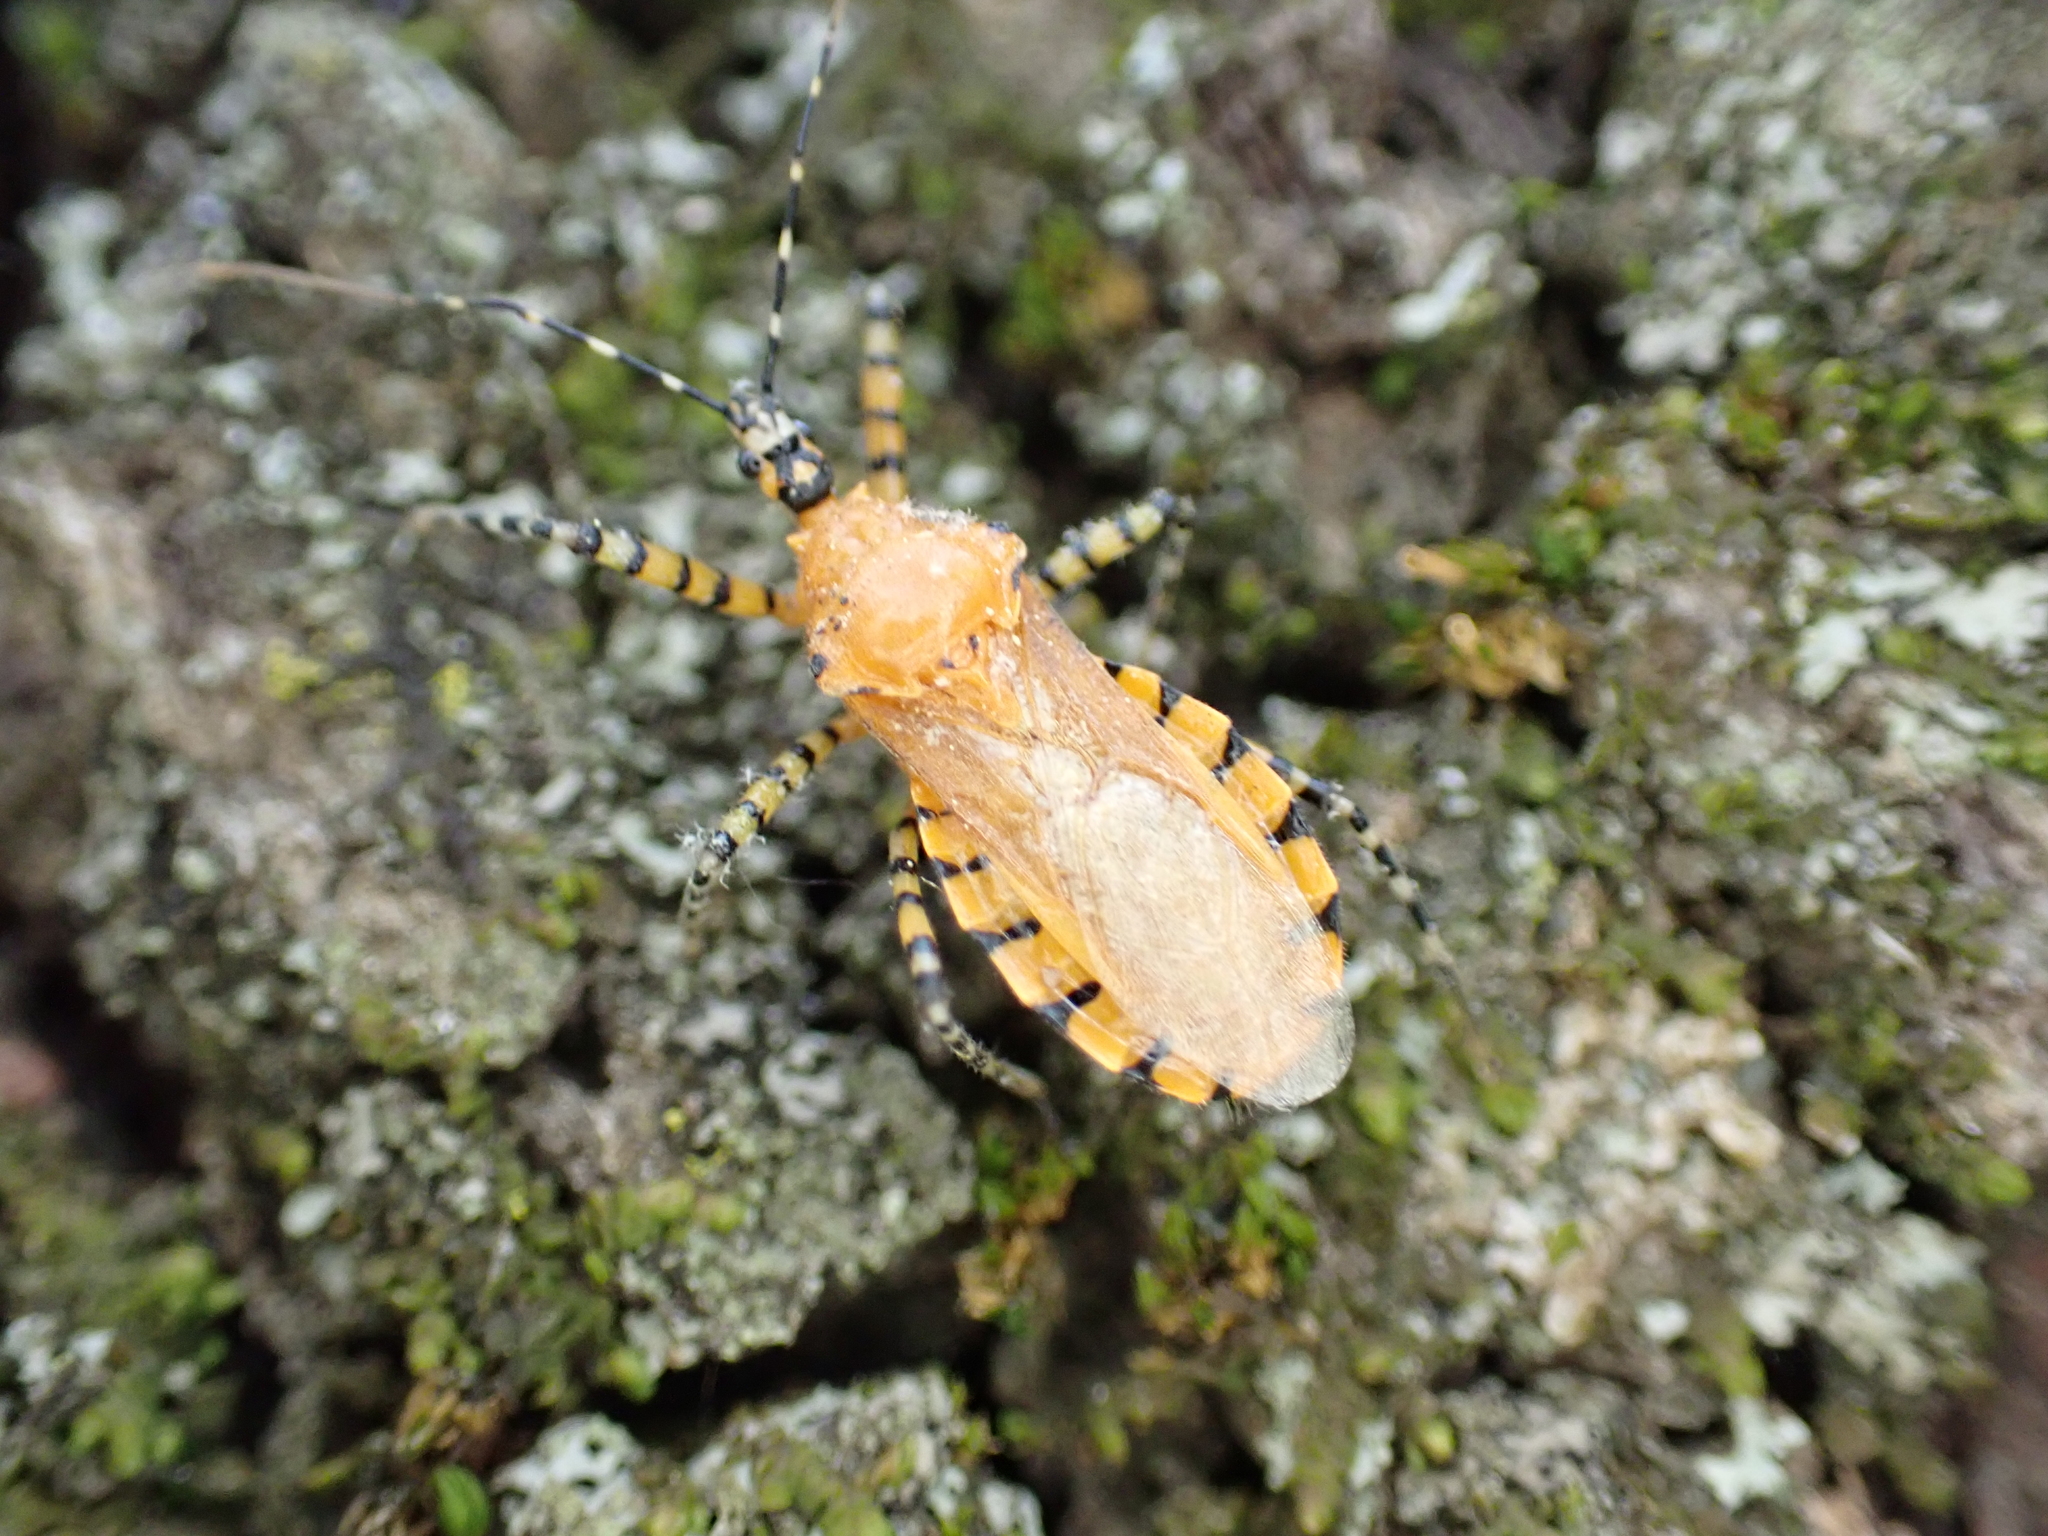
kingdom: Animalia
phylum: Arthropoda
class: Insecta
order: Hemiptera
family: Reduviidae
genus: Pselliopus
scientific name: Pselliopus barberi
